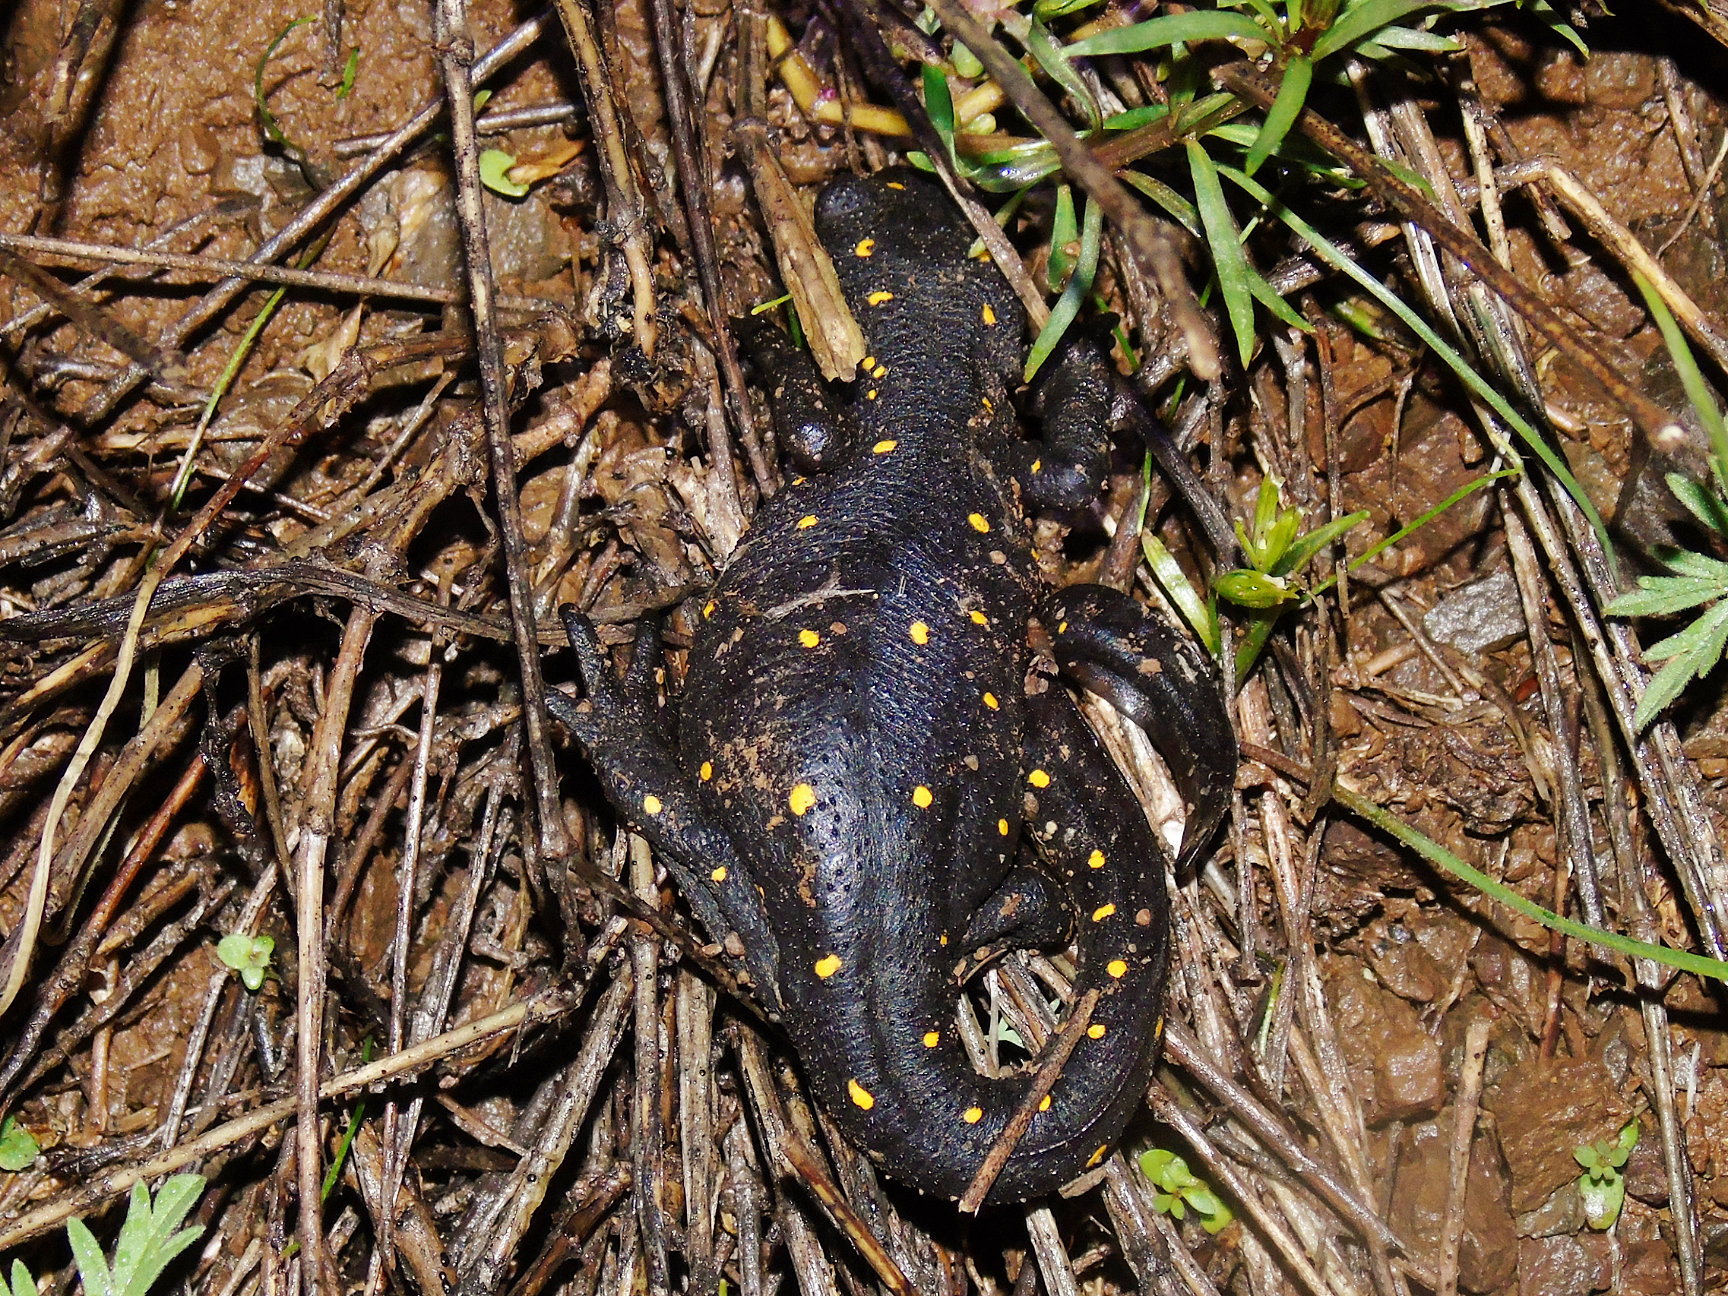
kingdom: Animalia
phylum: Chordata
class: Amphibia
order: Caudata
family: Salamandridae
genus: Neurergus
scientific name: Neurergus barani
